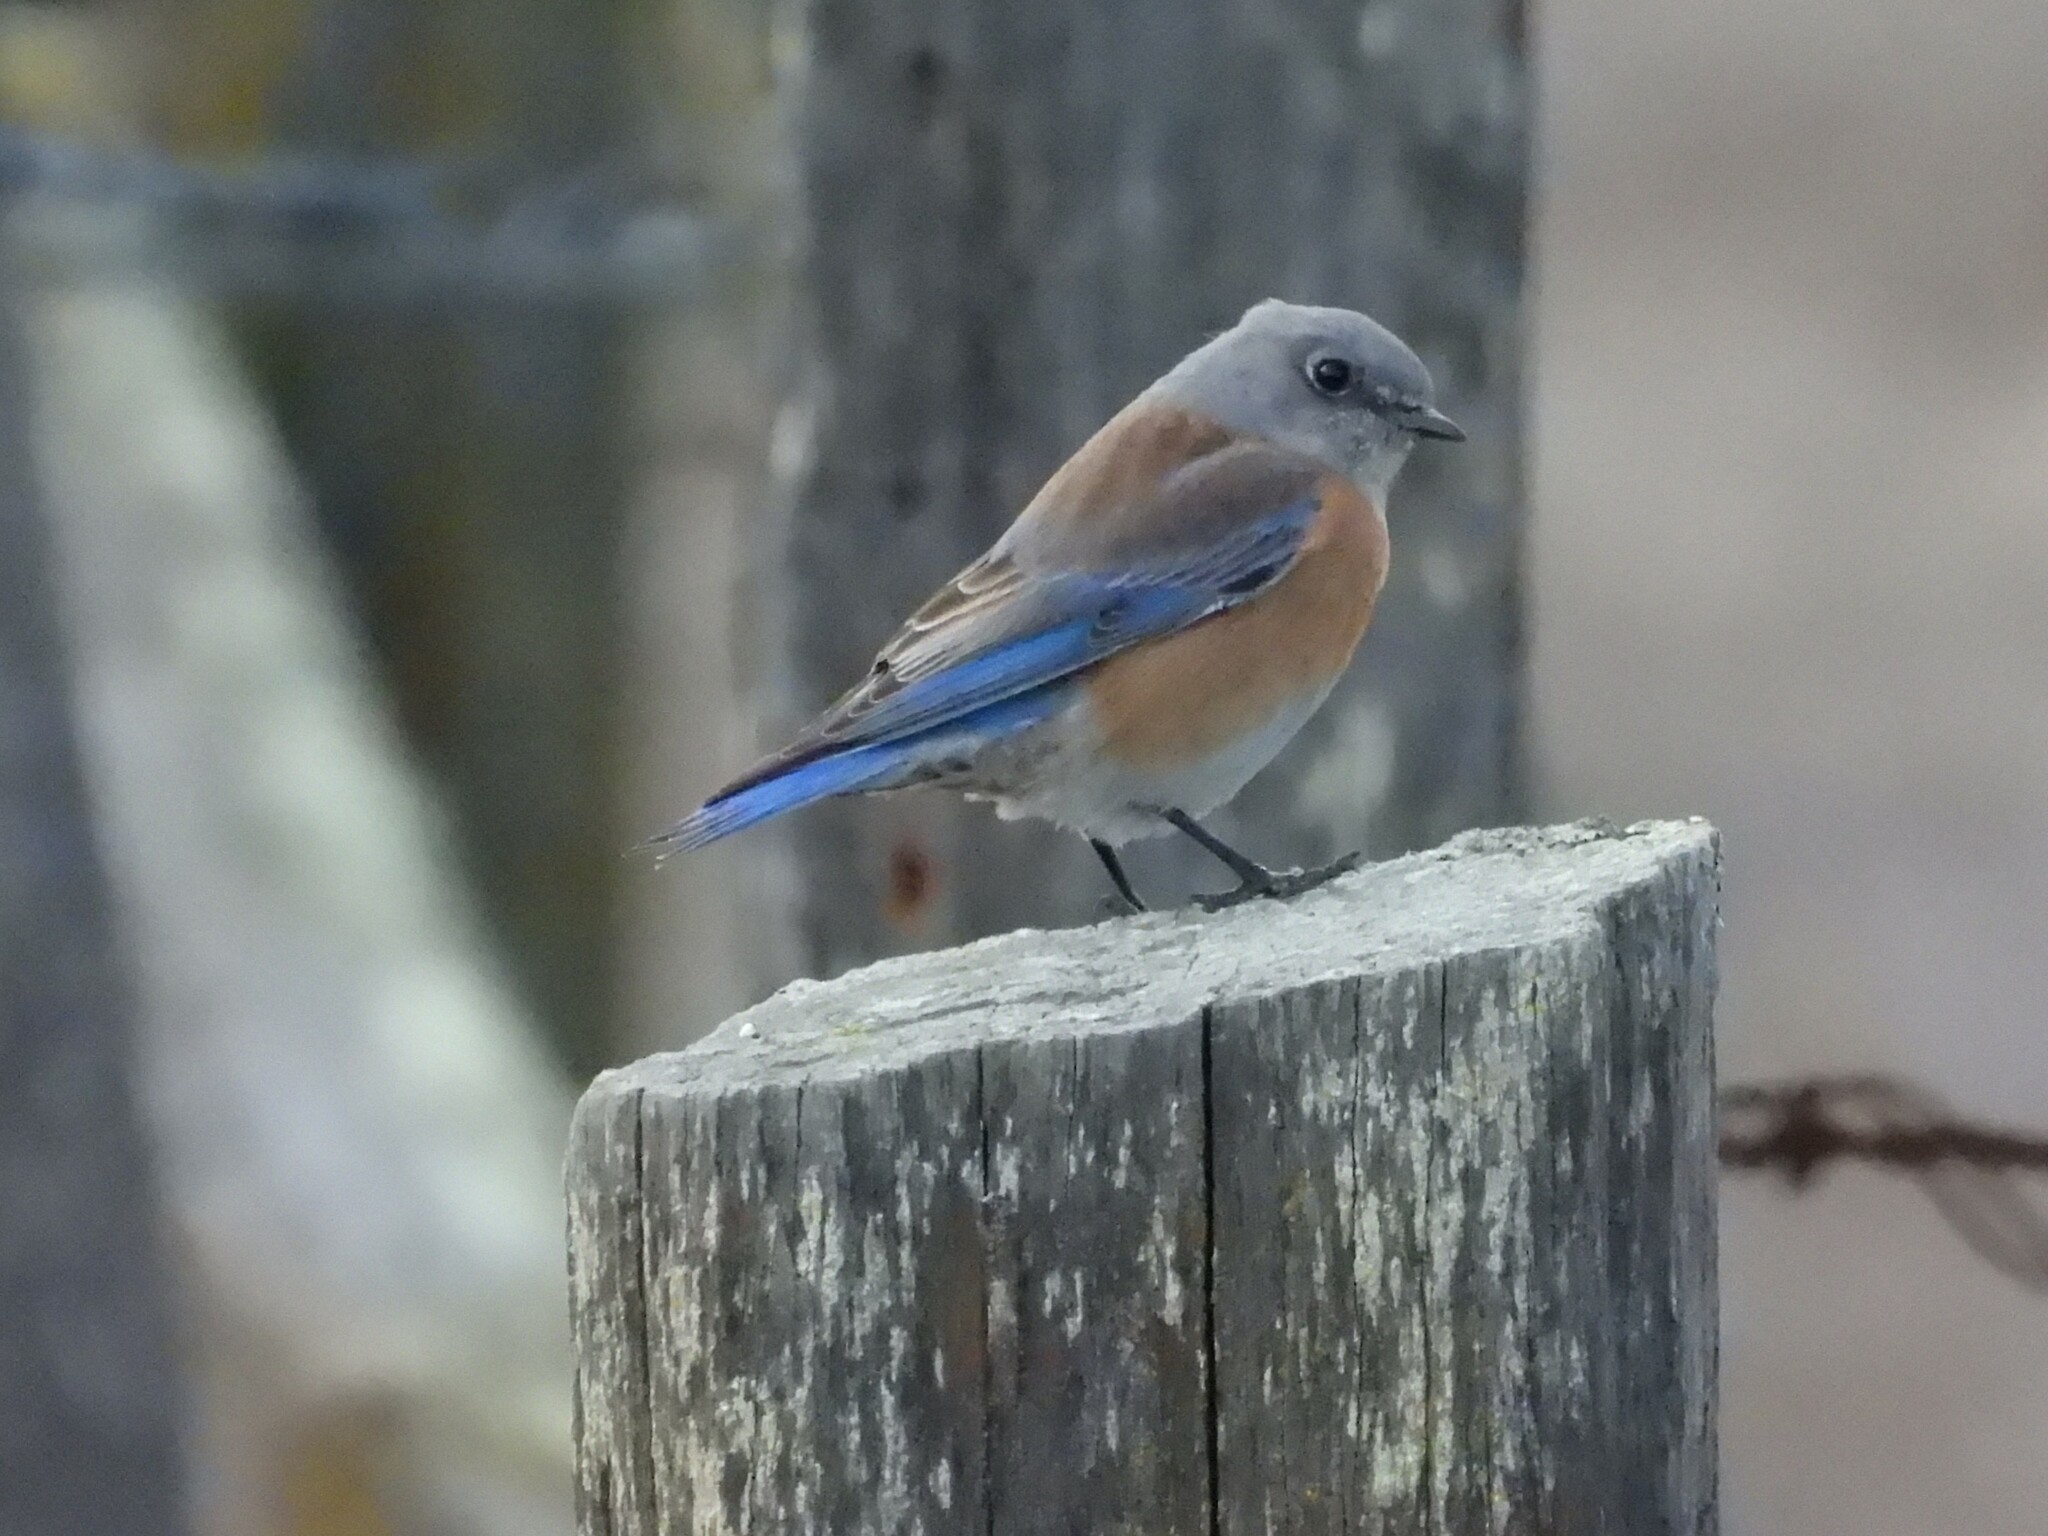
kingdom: Animalia
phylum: Chordata
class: Aves
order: Passeriformes
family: Turdidae
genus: Sialia
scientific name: Sialia mexicana
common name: Western bluebird
